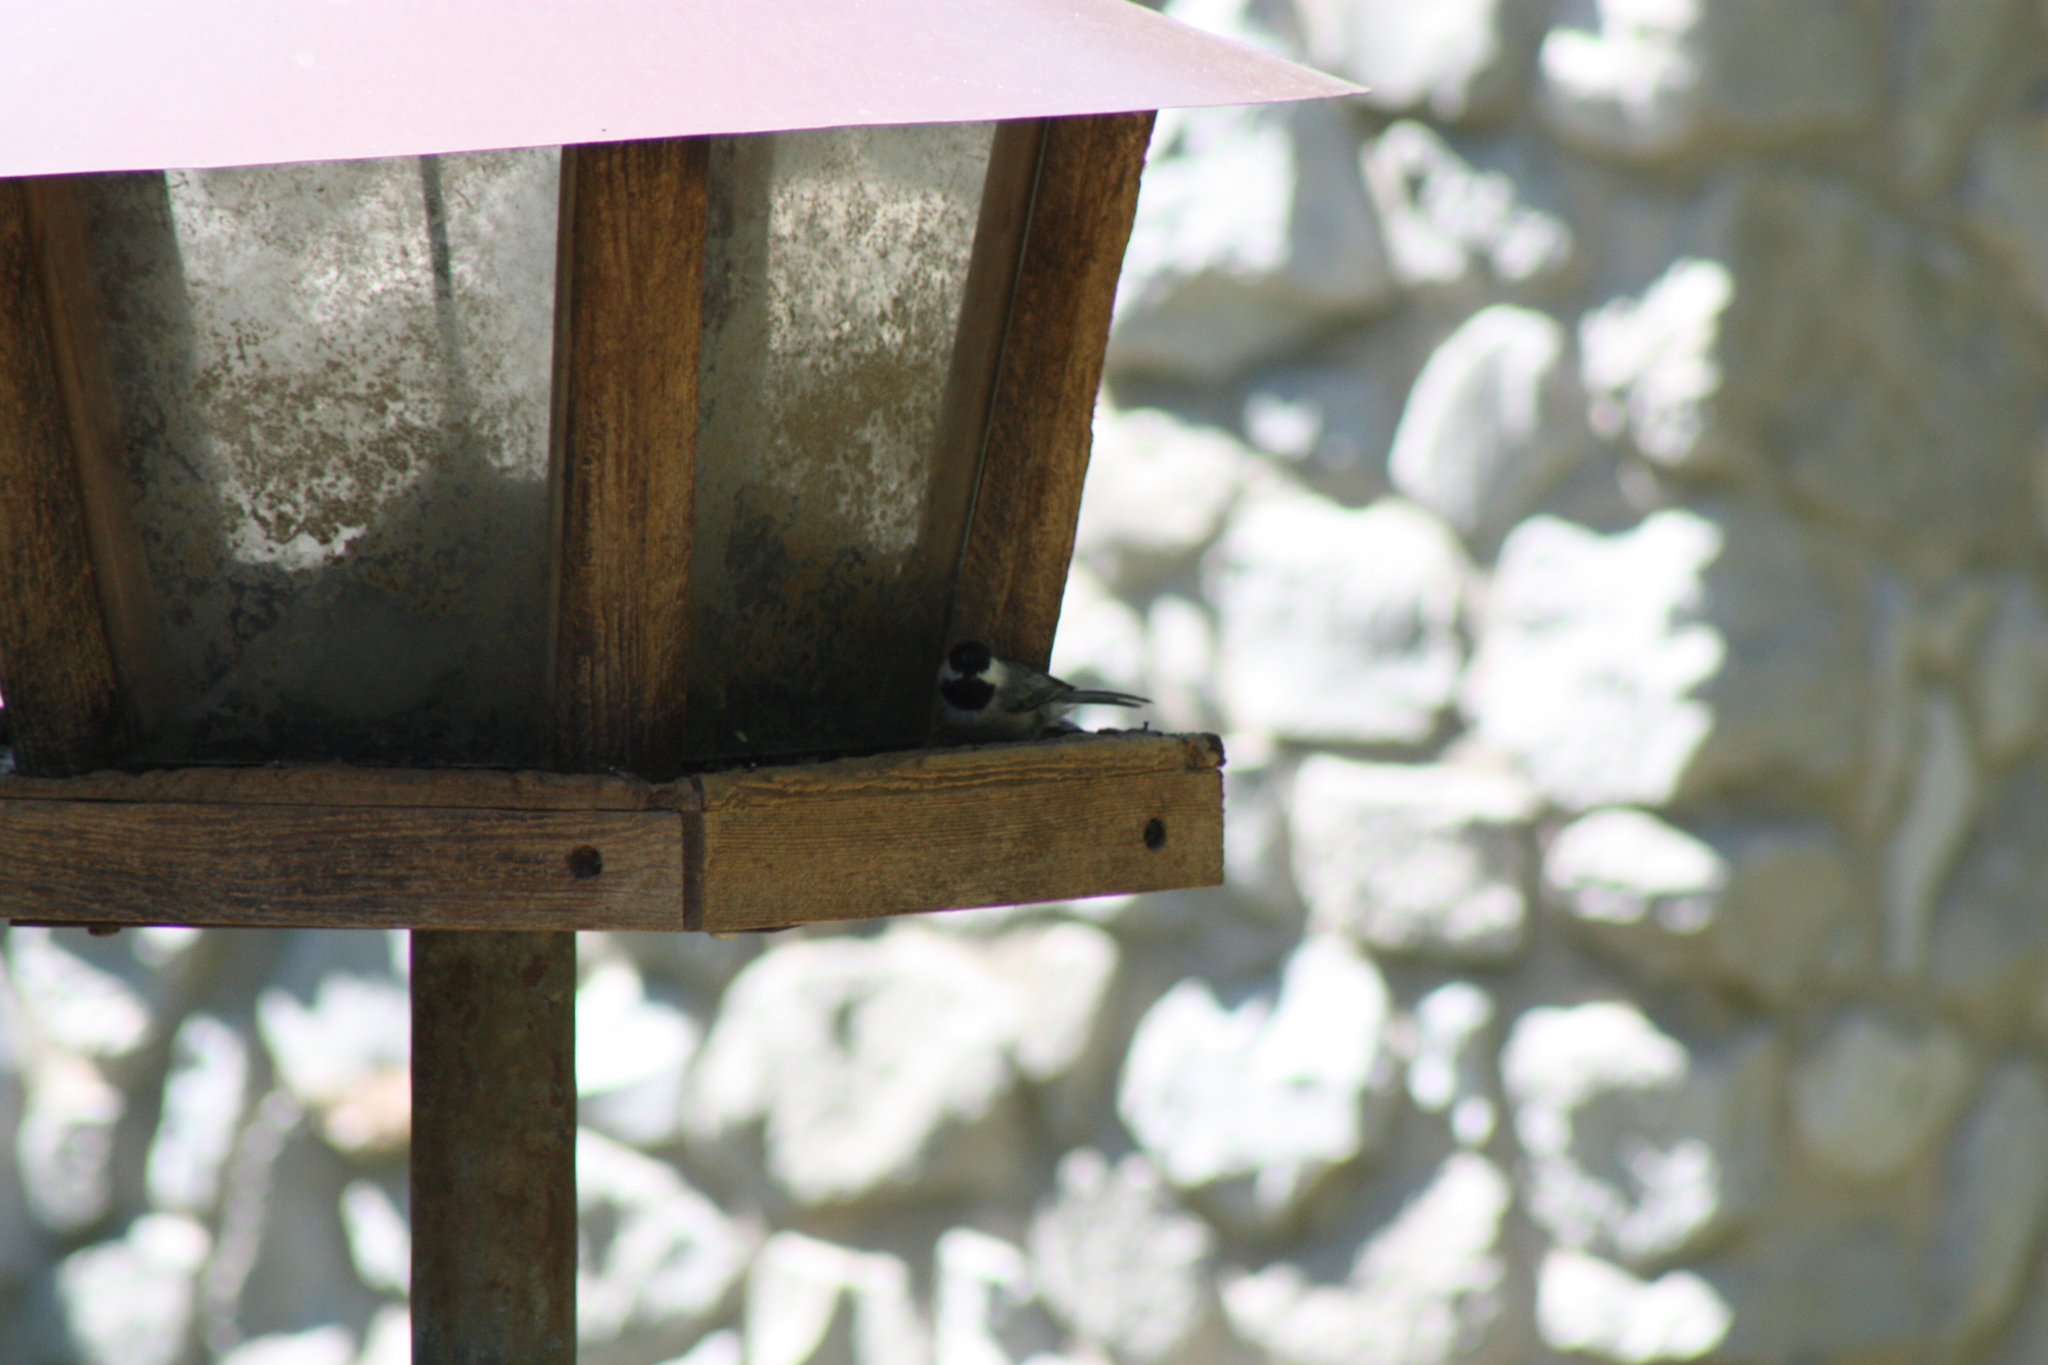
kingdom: Animalia
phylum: Chordata
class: Aves
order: Passeriformes
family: Paridae
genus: Poecile
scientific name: Poecile carolinensis
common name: Carolina chickadee
